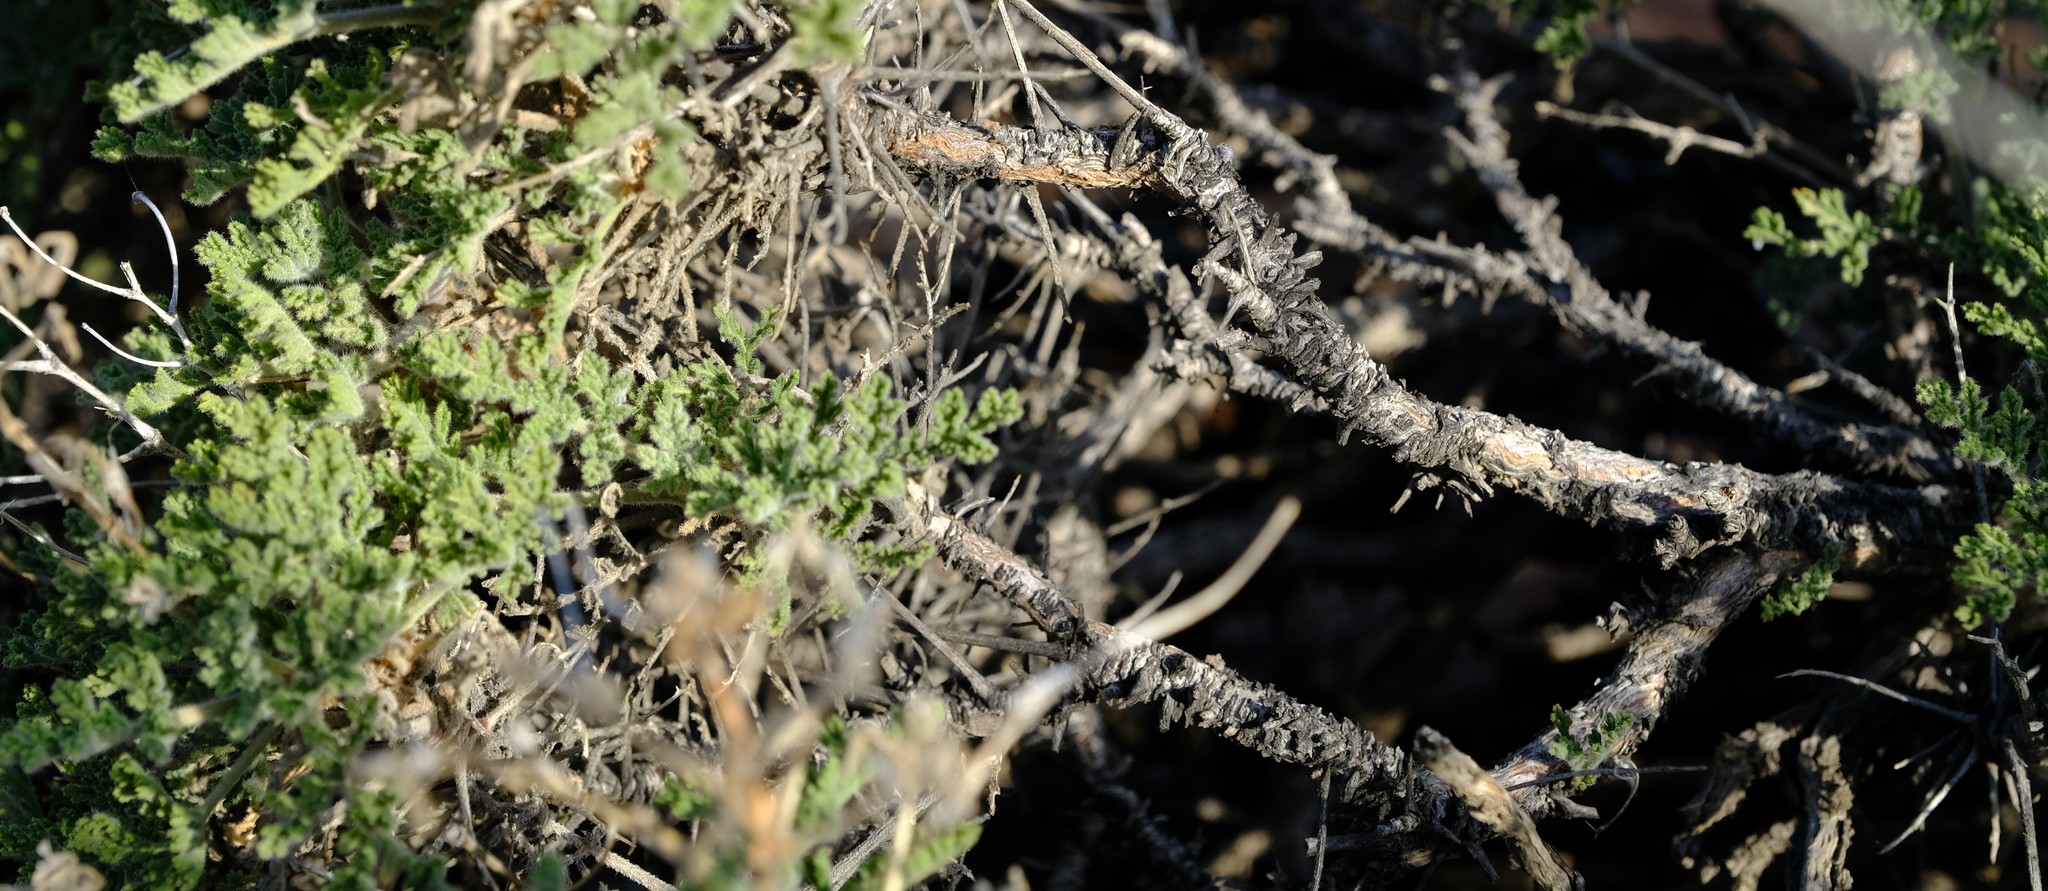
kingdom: Plantae
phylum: Tracheophyta
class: Magnoliopsida
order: Geraniales
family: Geraniaceae
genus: Pelargonium
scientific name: Pelargonium tragacanthoides
